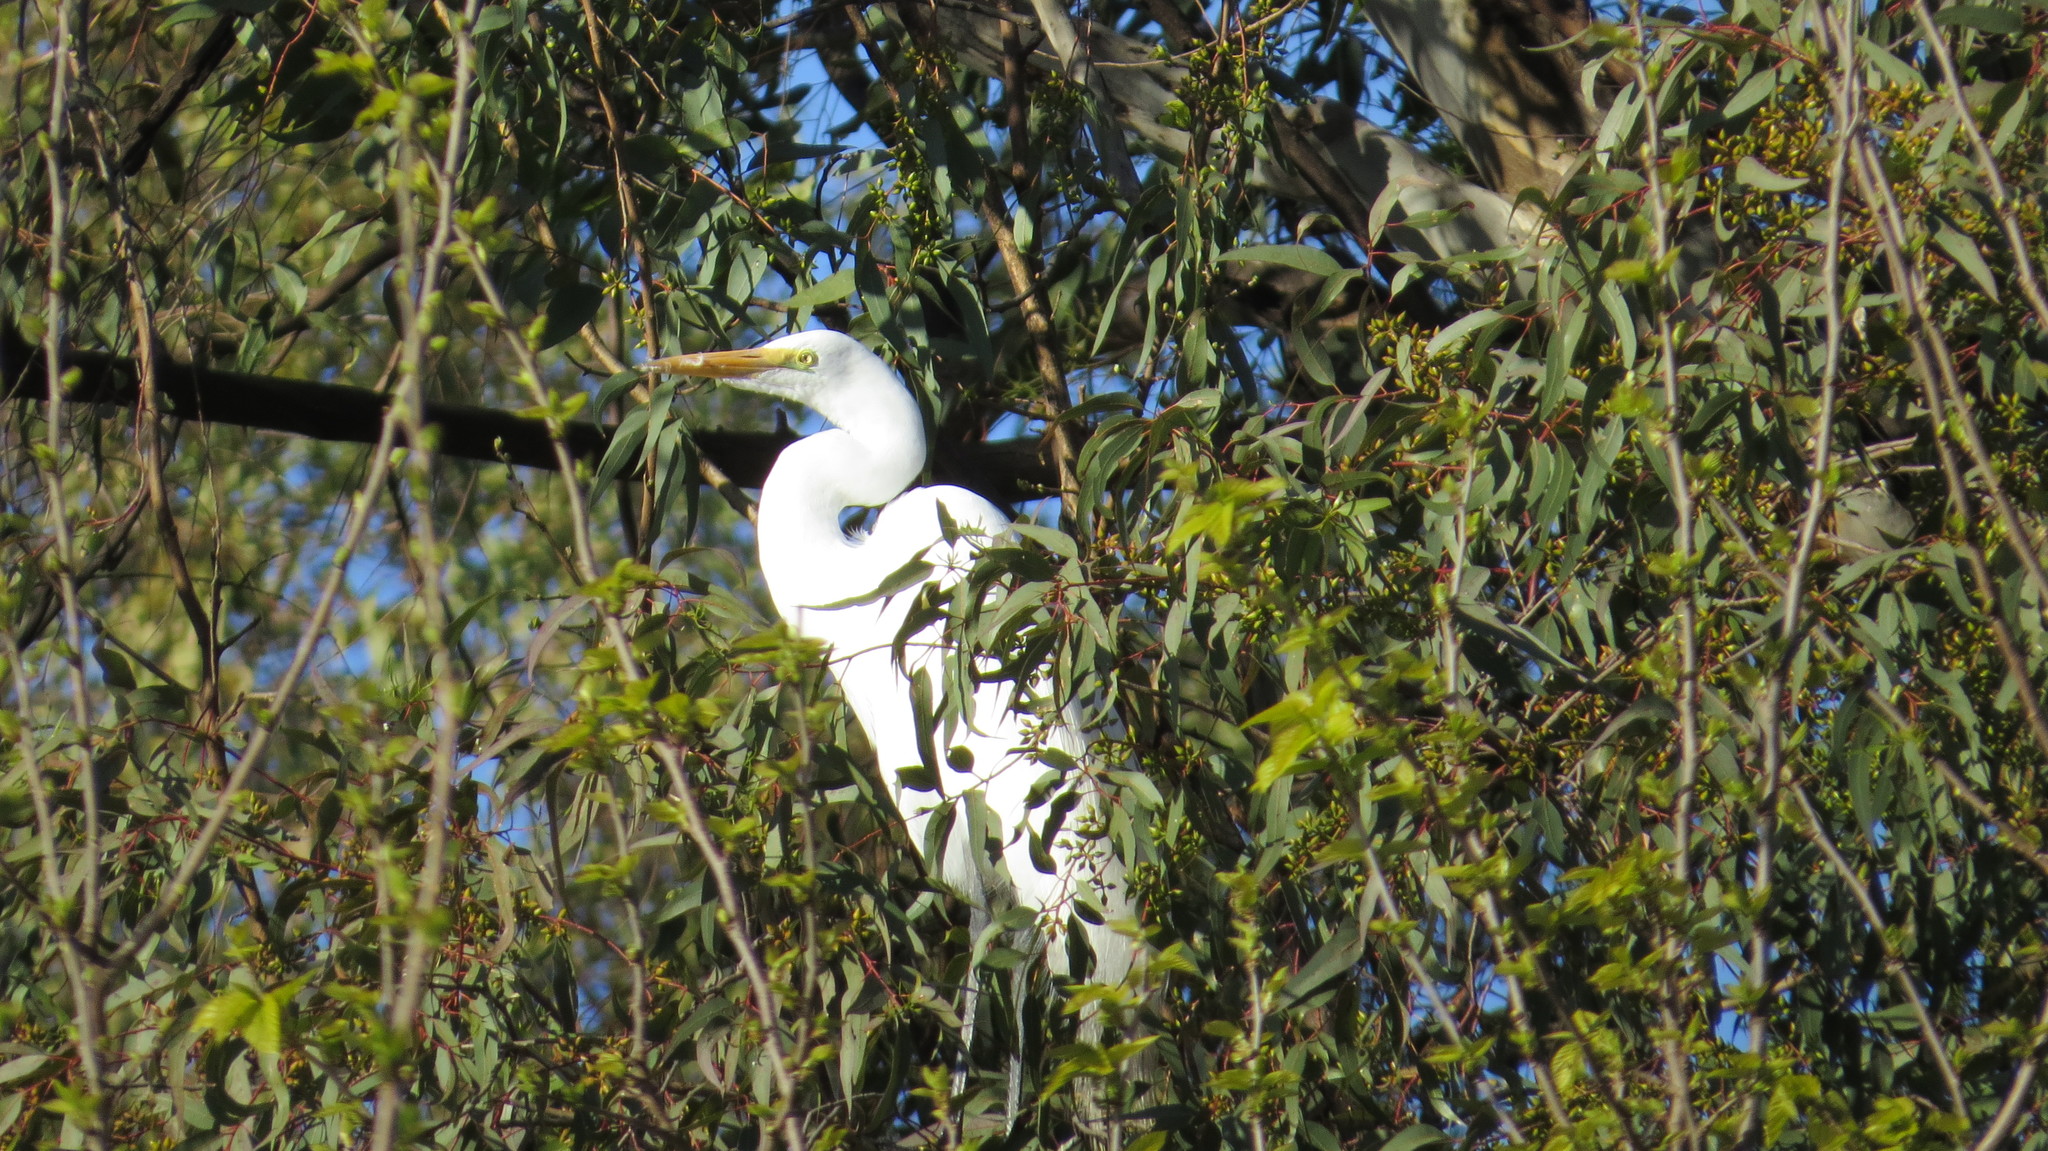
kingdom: Animalia
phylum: Chordata
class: Aves
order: Pelecaniformes
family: Ardeidae
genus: Ardea
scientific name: Ardea alba
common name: Great egret
